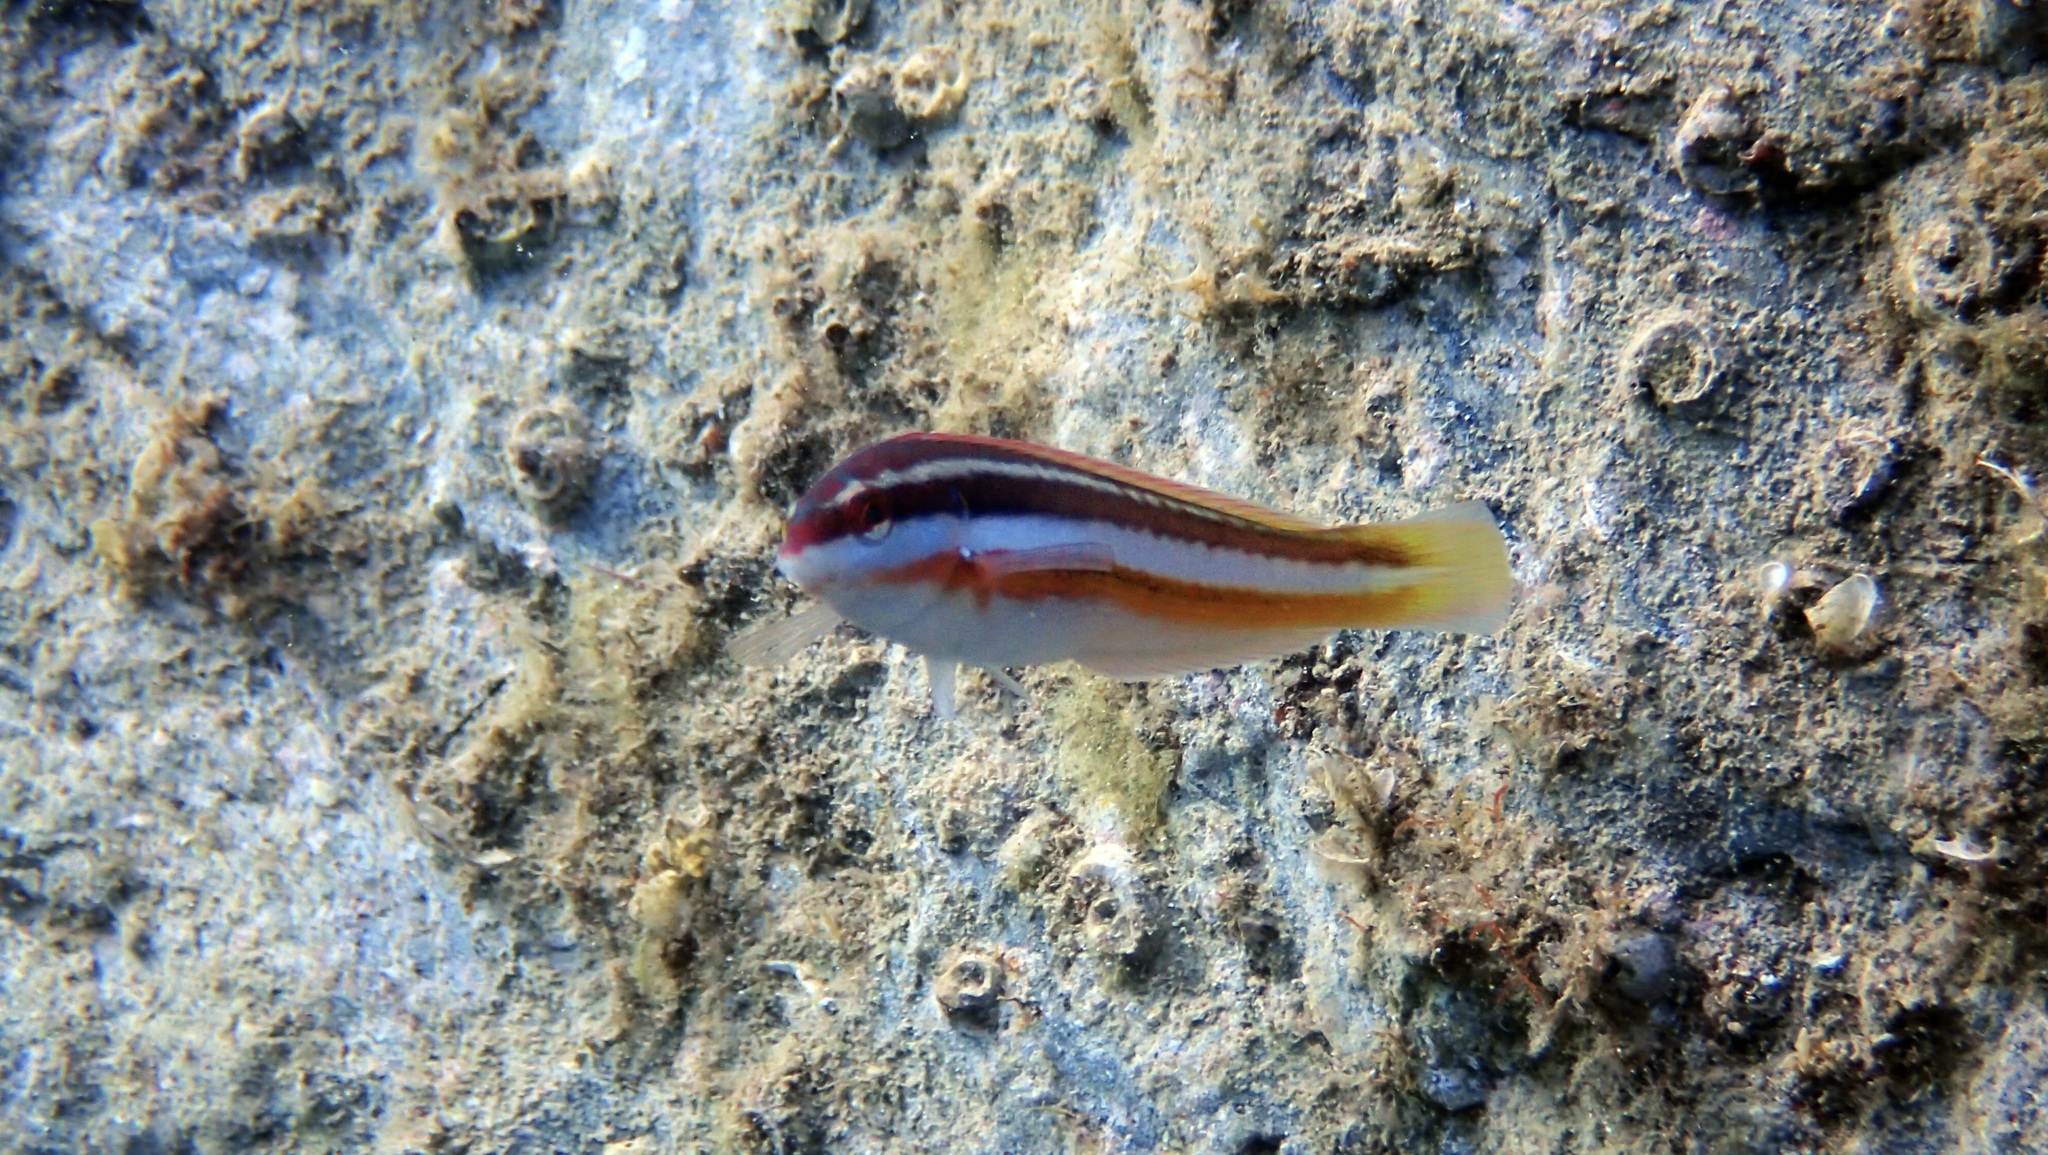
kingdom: Animalia
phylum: Chordata
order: Perciformes
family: Labridae
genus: Coris
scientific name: Coris julis
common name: Rainbow wrasse
